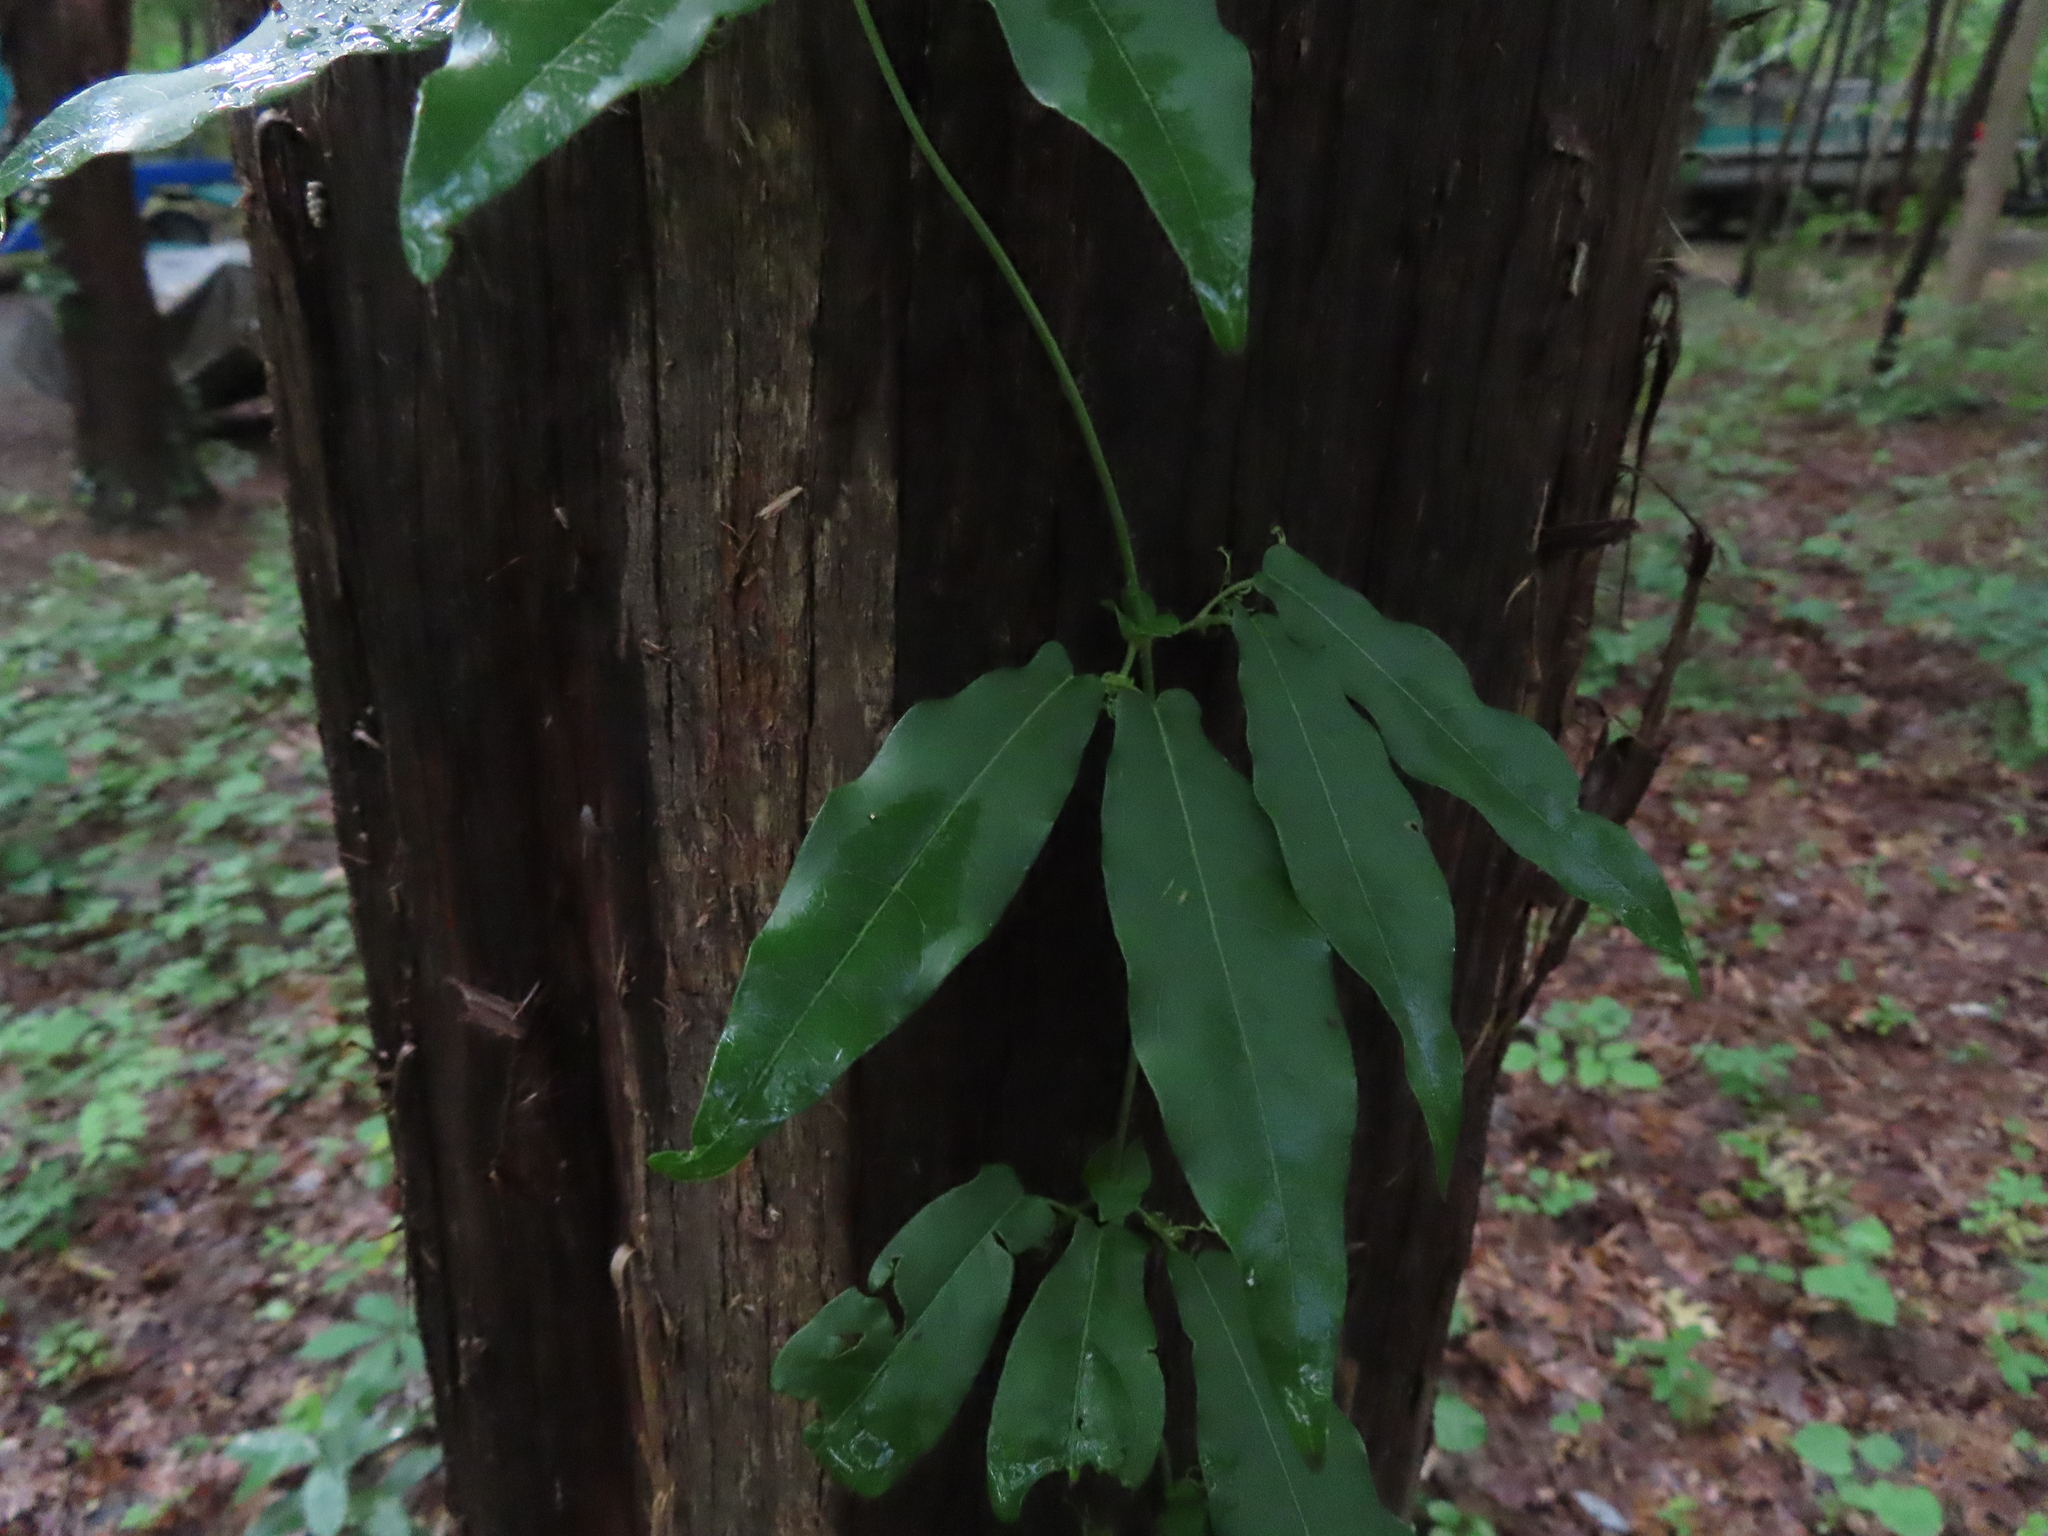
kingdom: Plantae
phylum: Tracheophyta
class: Magnoliopsida
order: Lamiales
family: Bignoniaceae
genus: Bignonia
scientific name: Bignonia capreolata
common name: Crossvine
